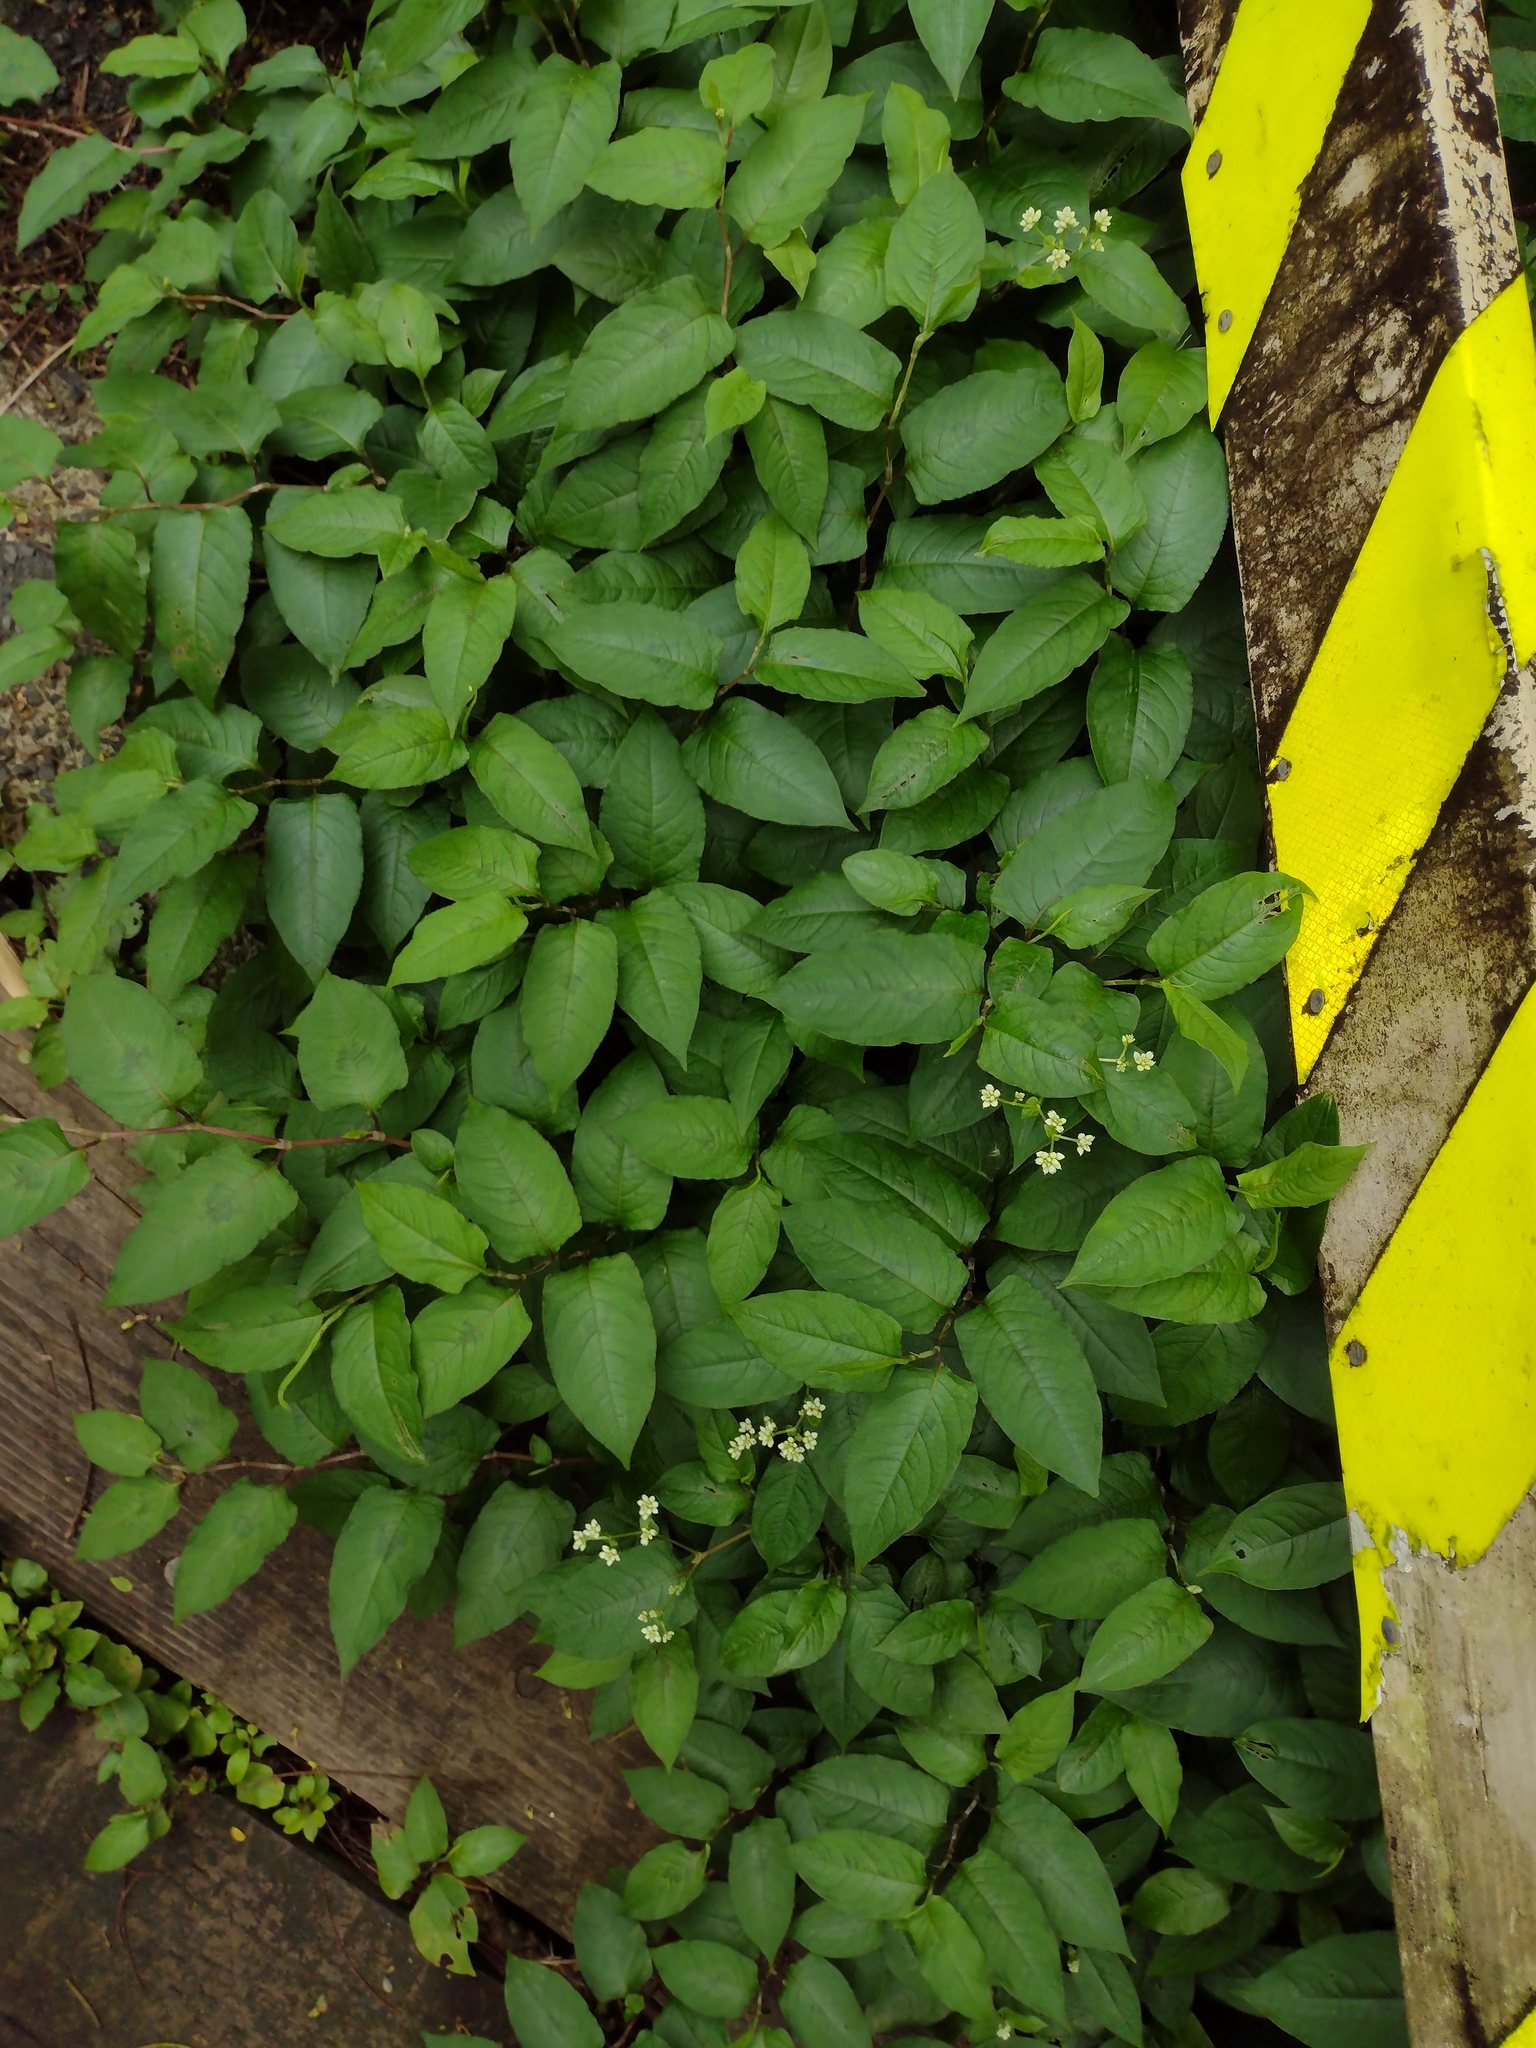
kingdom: Plantae
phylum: Tracheophyta
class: Magnoliopsida
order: Caryophyllales
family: Polygonaceae
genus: Persicaria
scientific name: Persicaria chinensis
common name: Chinese knotweed
